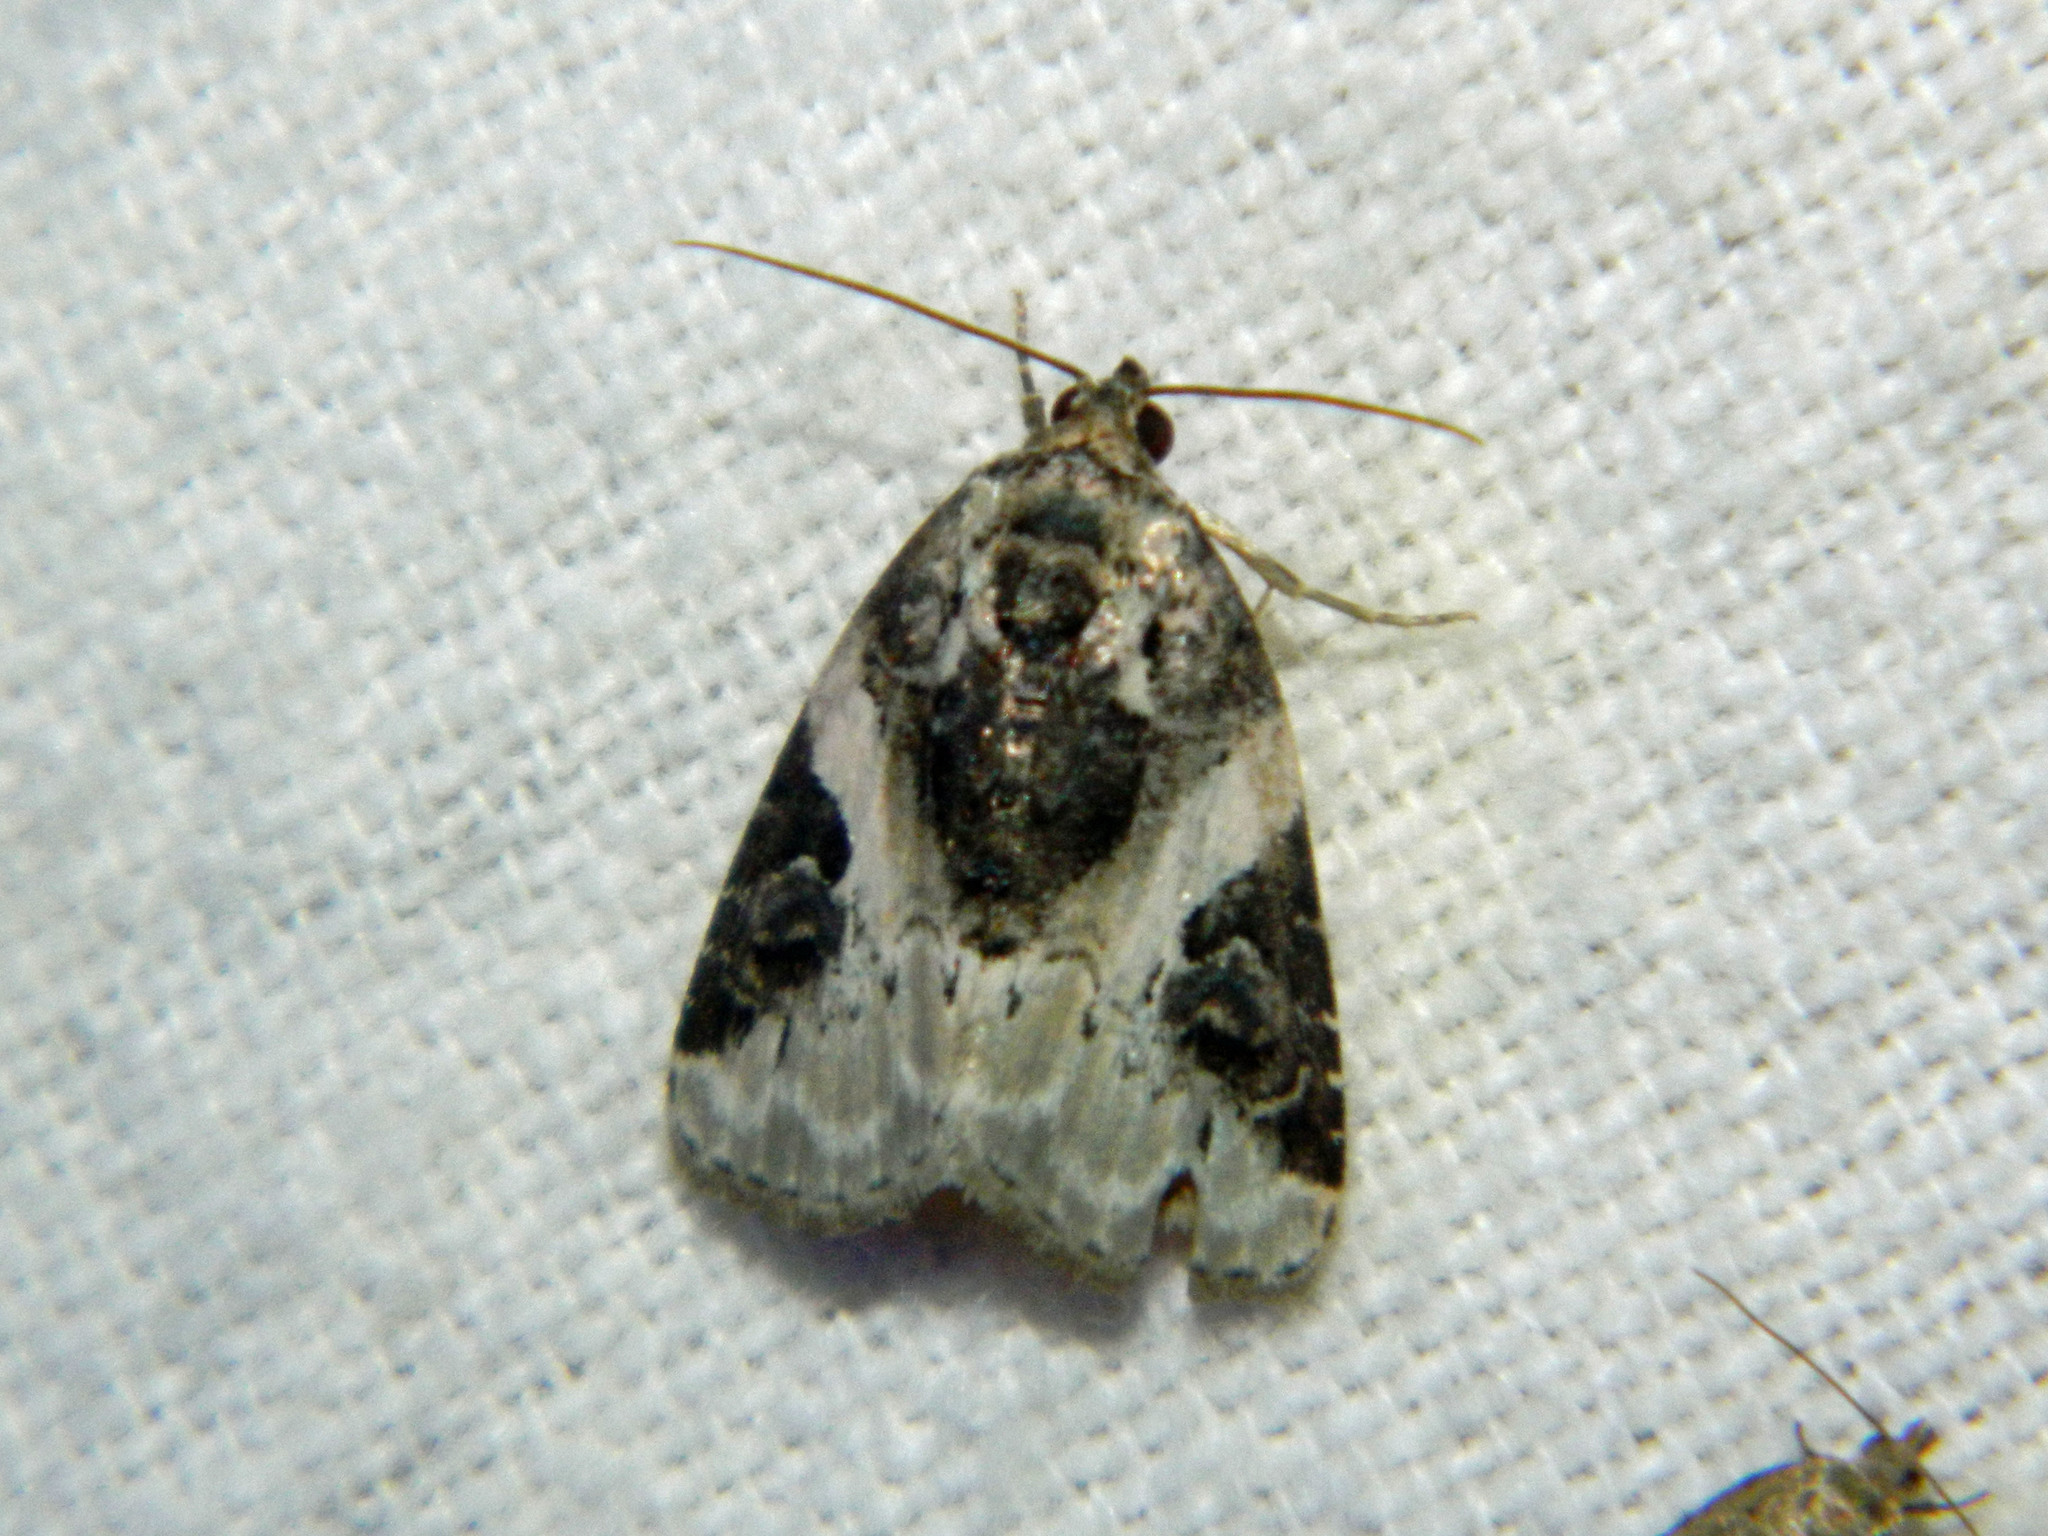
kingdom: Animalia
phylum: Arthropoda
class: Insecta
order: Lepidoptera
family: Noctuidae
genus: Pseudeustrotia
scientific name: Pseudeustrotia carneola
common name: Pink-barred lithacodia moth
